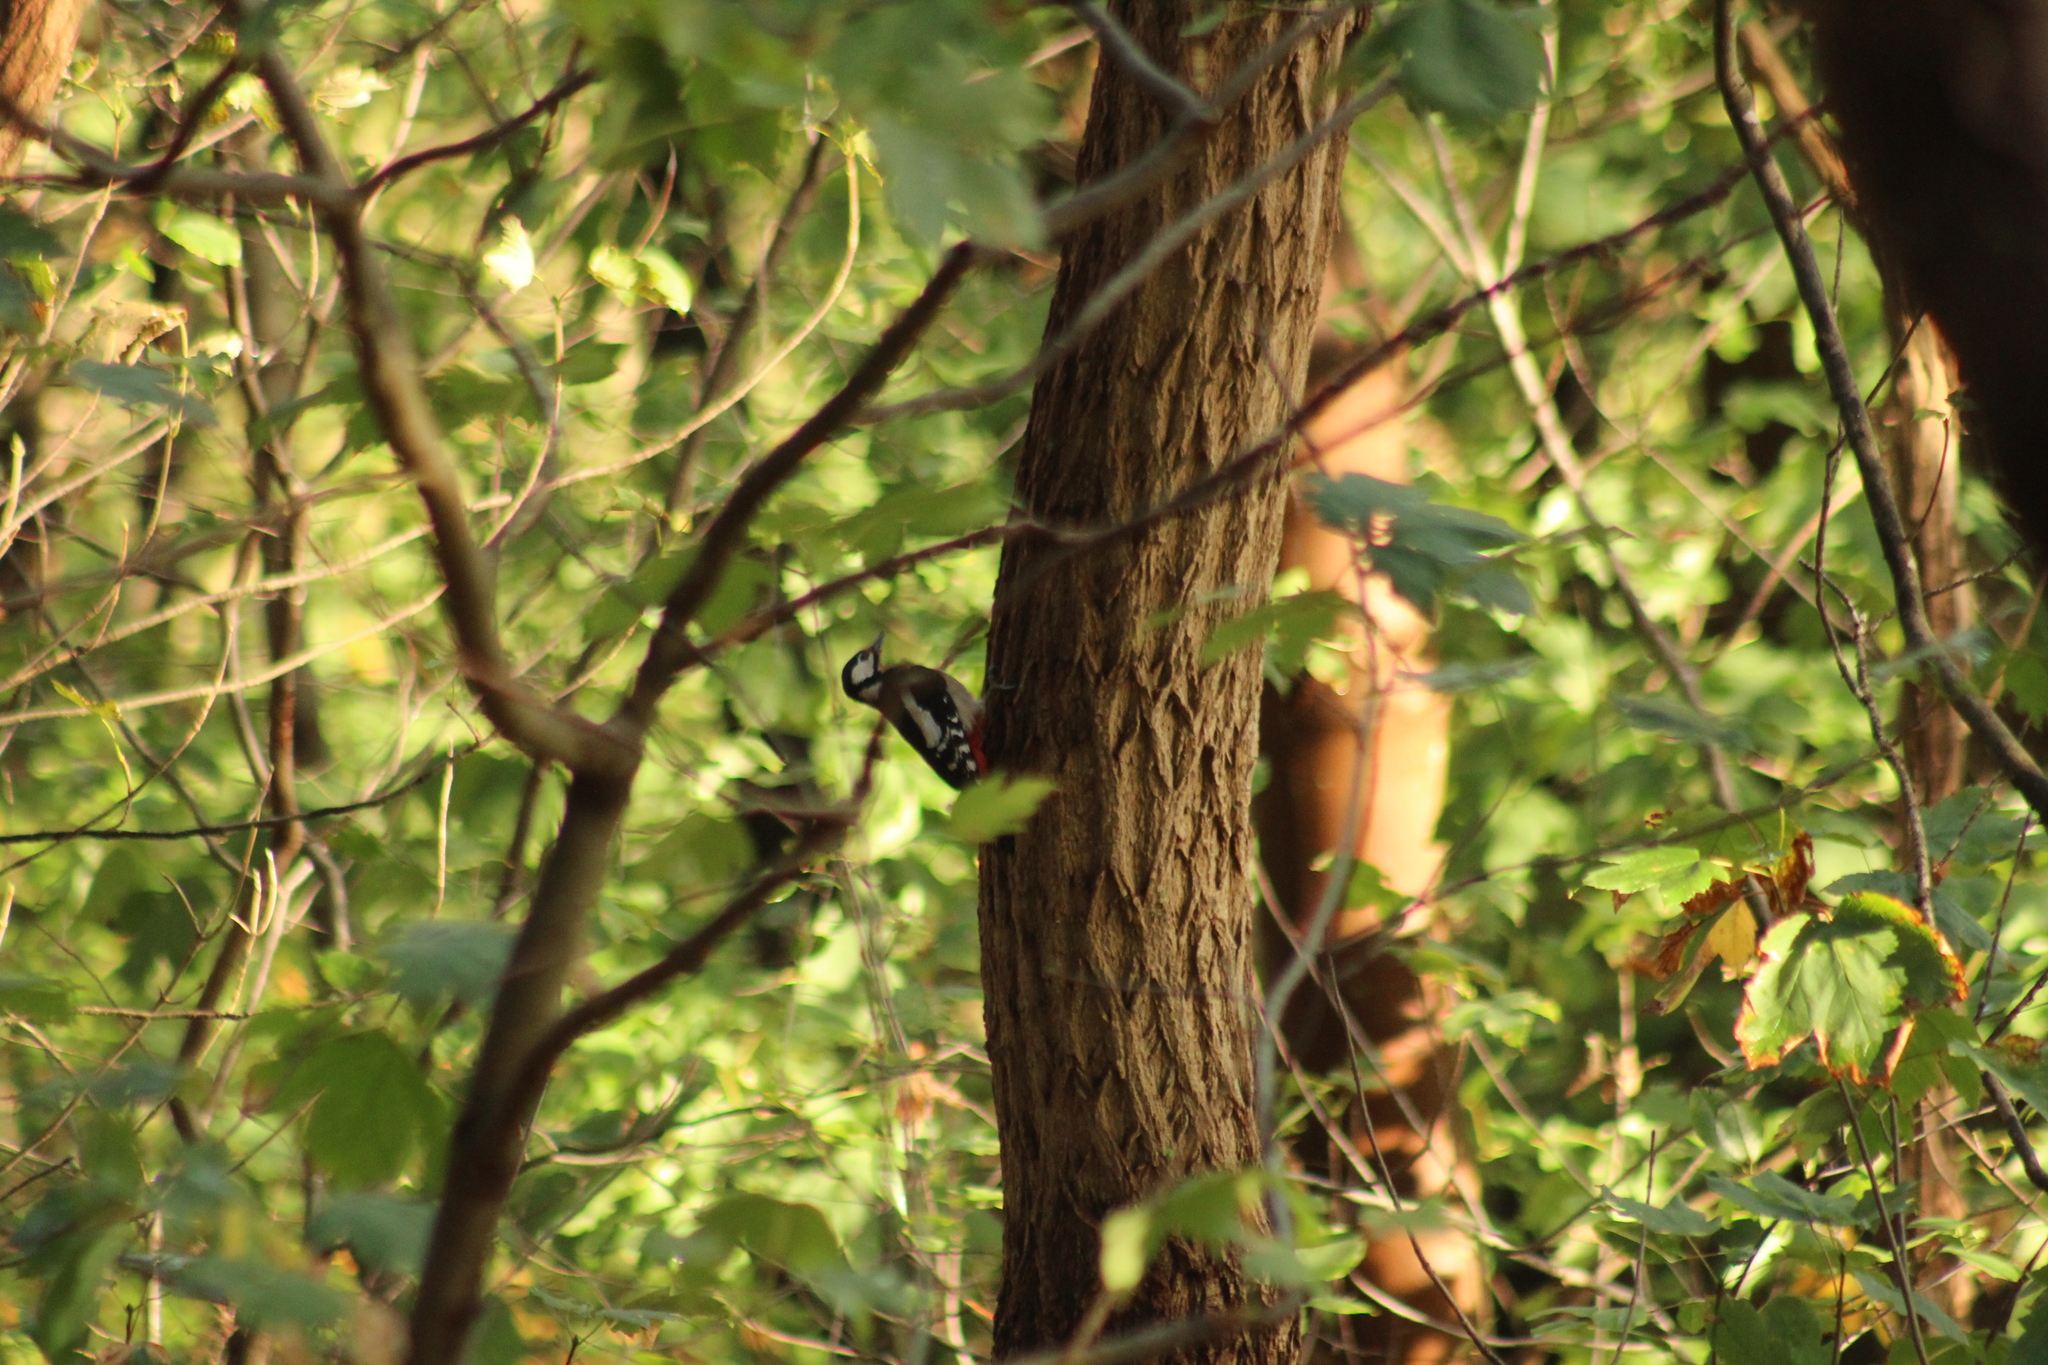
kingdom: Animalia
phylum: Chordata
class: Aves
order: Piciformes
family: Picidae
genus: Dendrocopos
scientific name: Dendrocopos major
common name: Great spotted woodpecker
